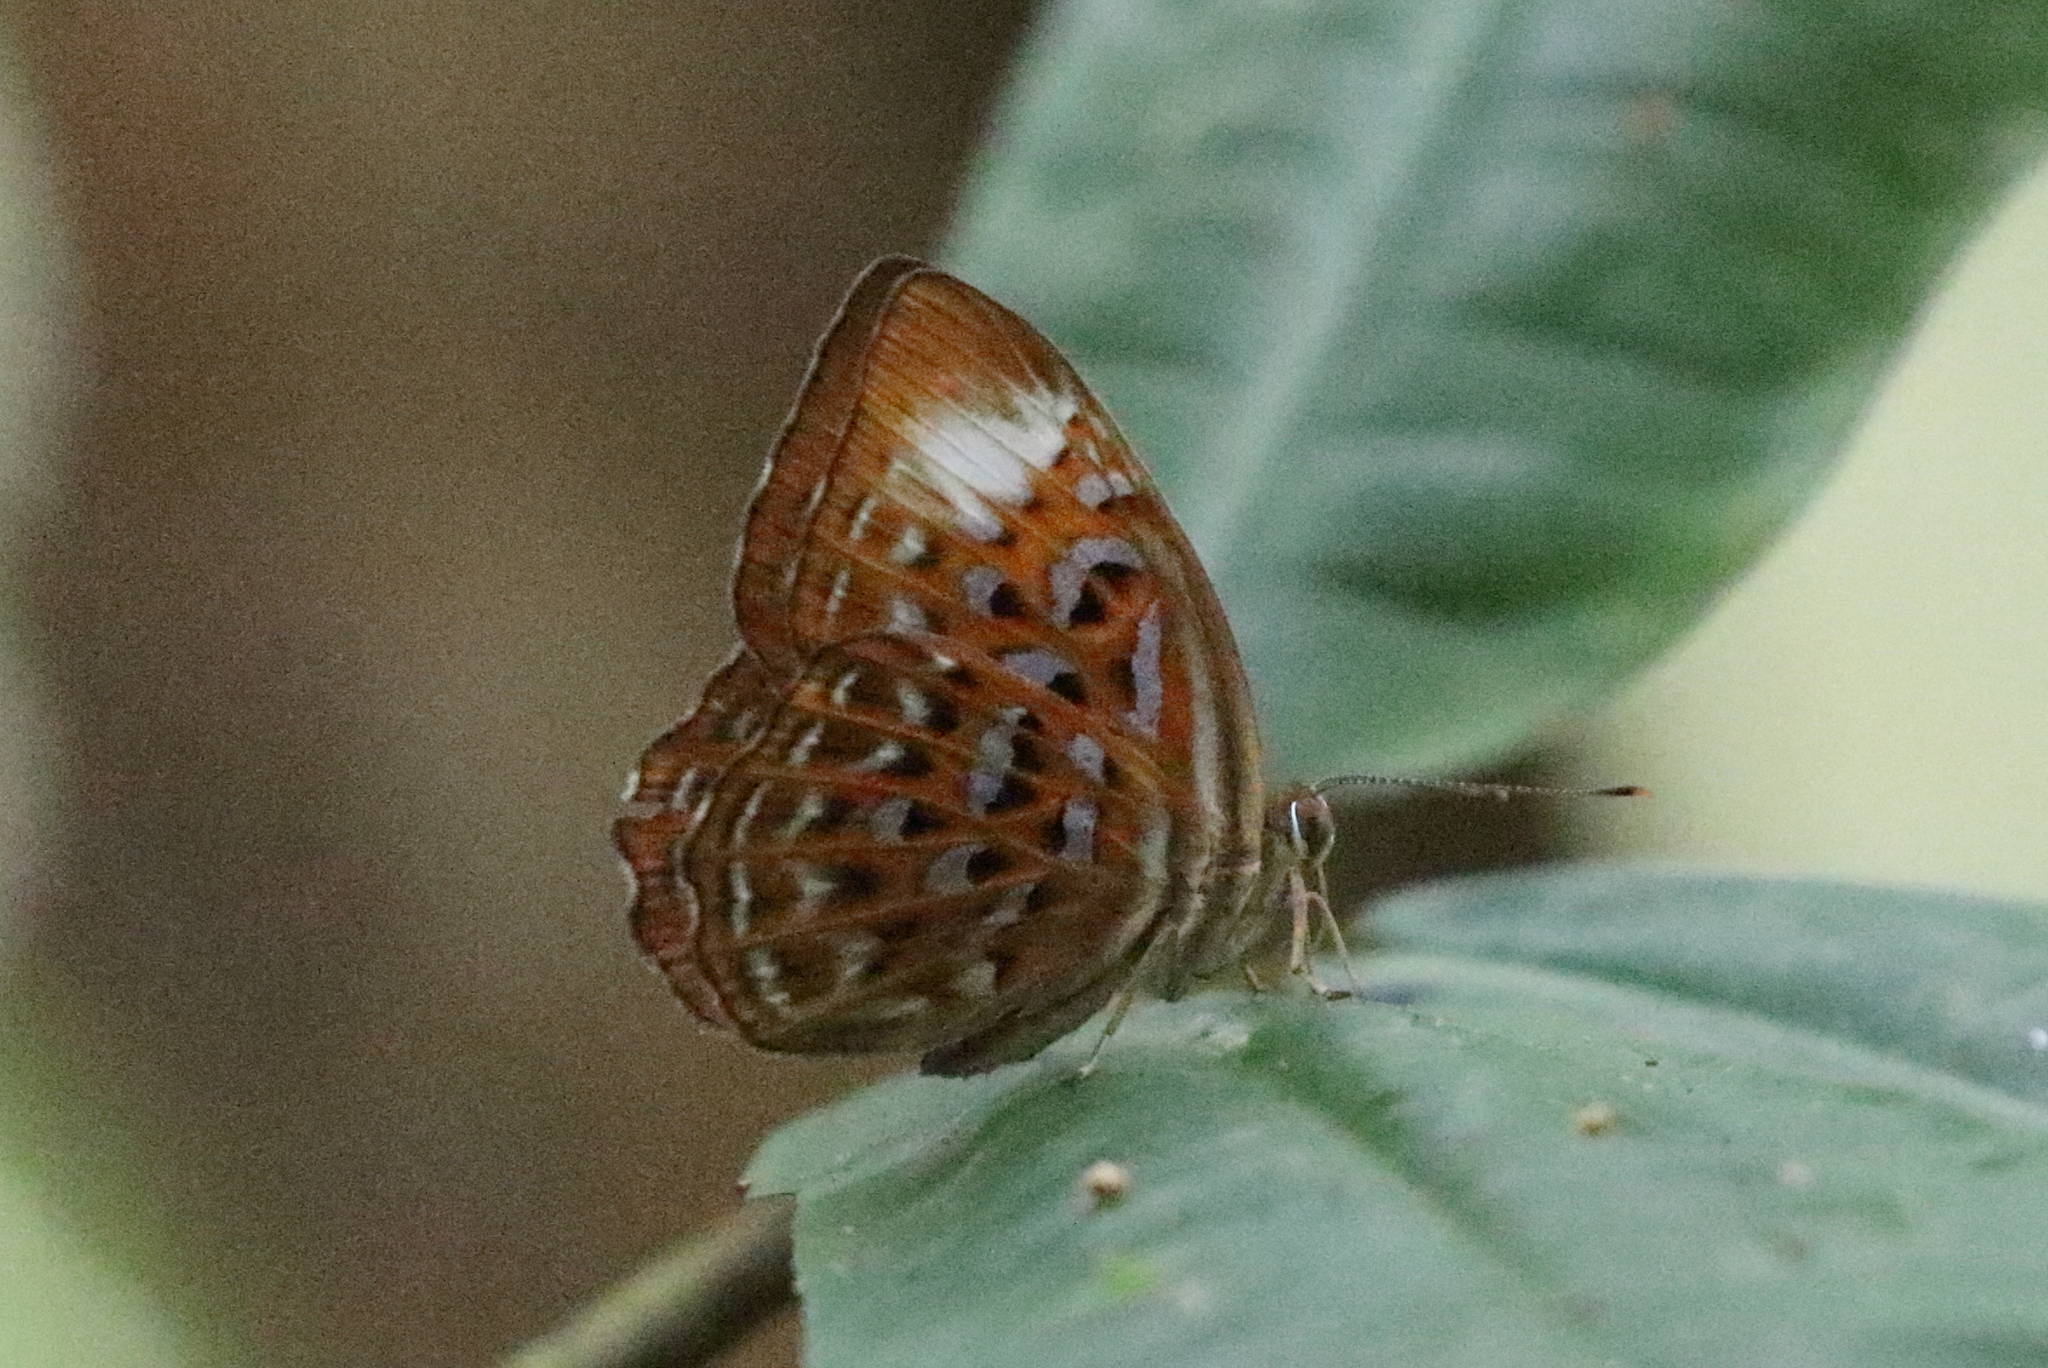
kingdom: Animalia
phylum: Arthropoda
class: Insecta
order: Lepidoptera
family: Erebidae
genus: Dysschema
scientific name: Dysschema
